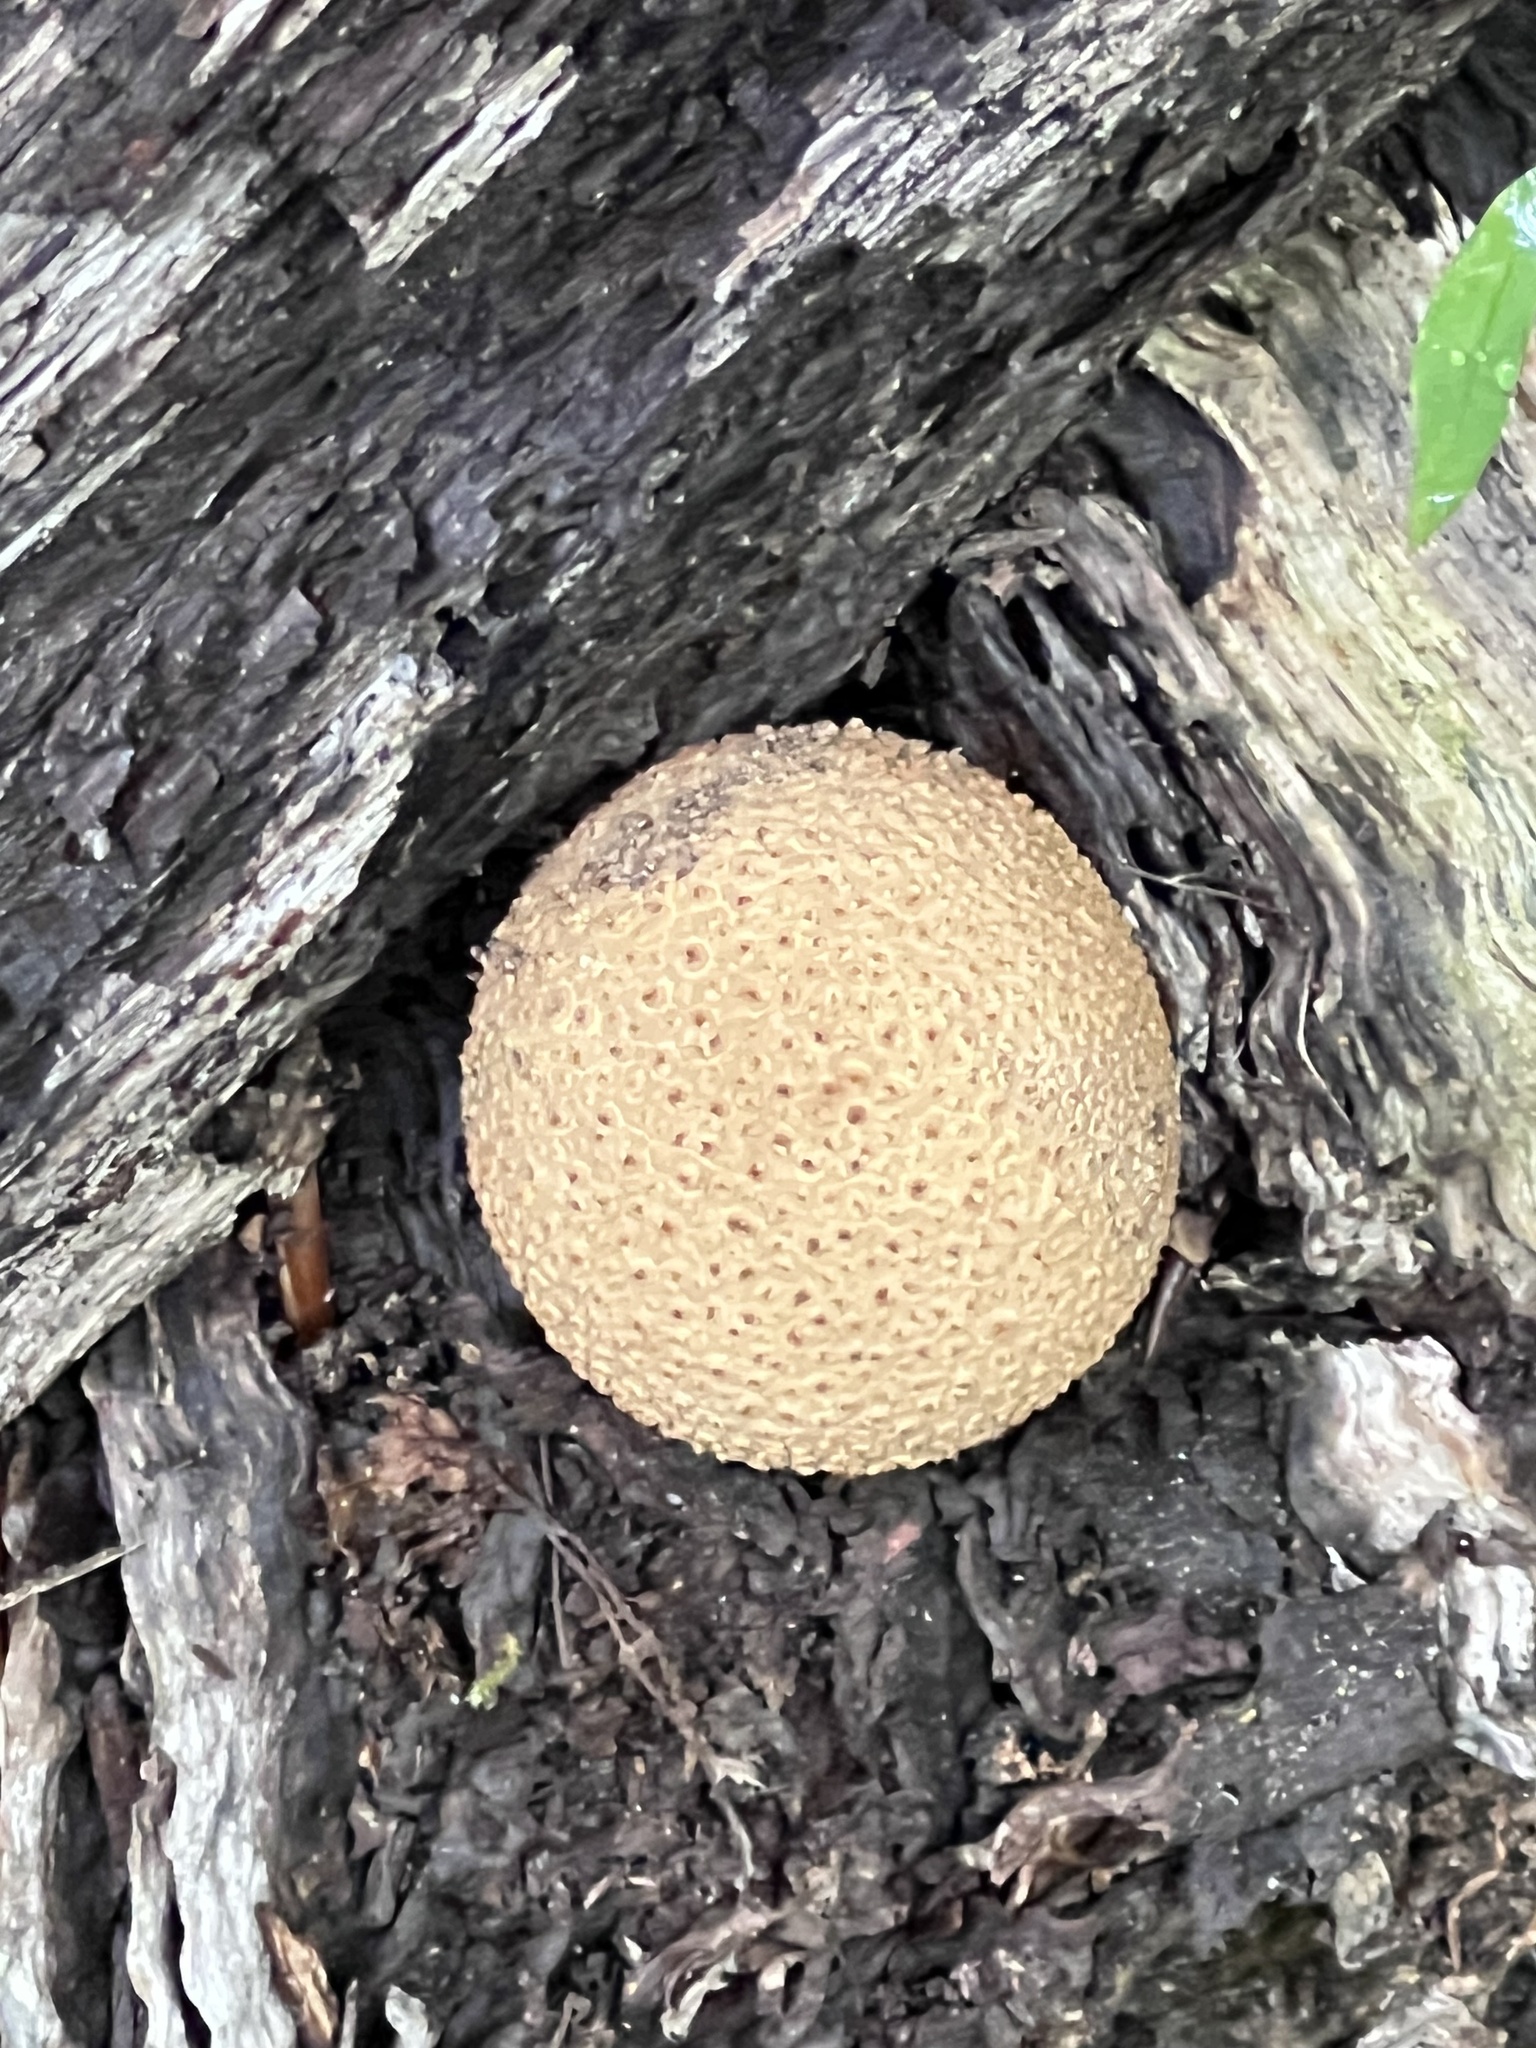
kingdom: Fungi
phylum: Basidiomycota
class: Agaricomycetes
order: Boletales
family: Sclerodermataceae
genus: Scleroderma
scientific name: Scleroderma citrinum
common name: Common earthball
